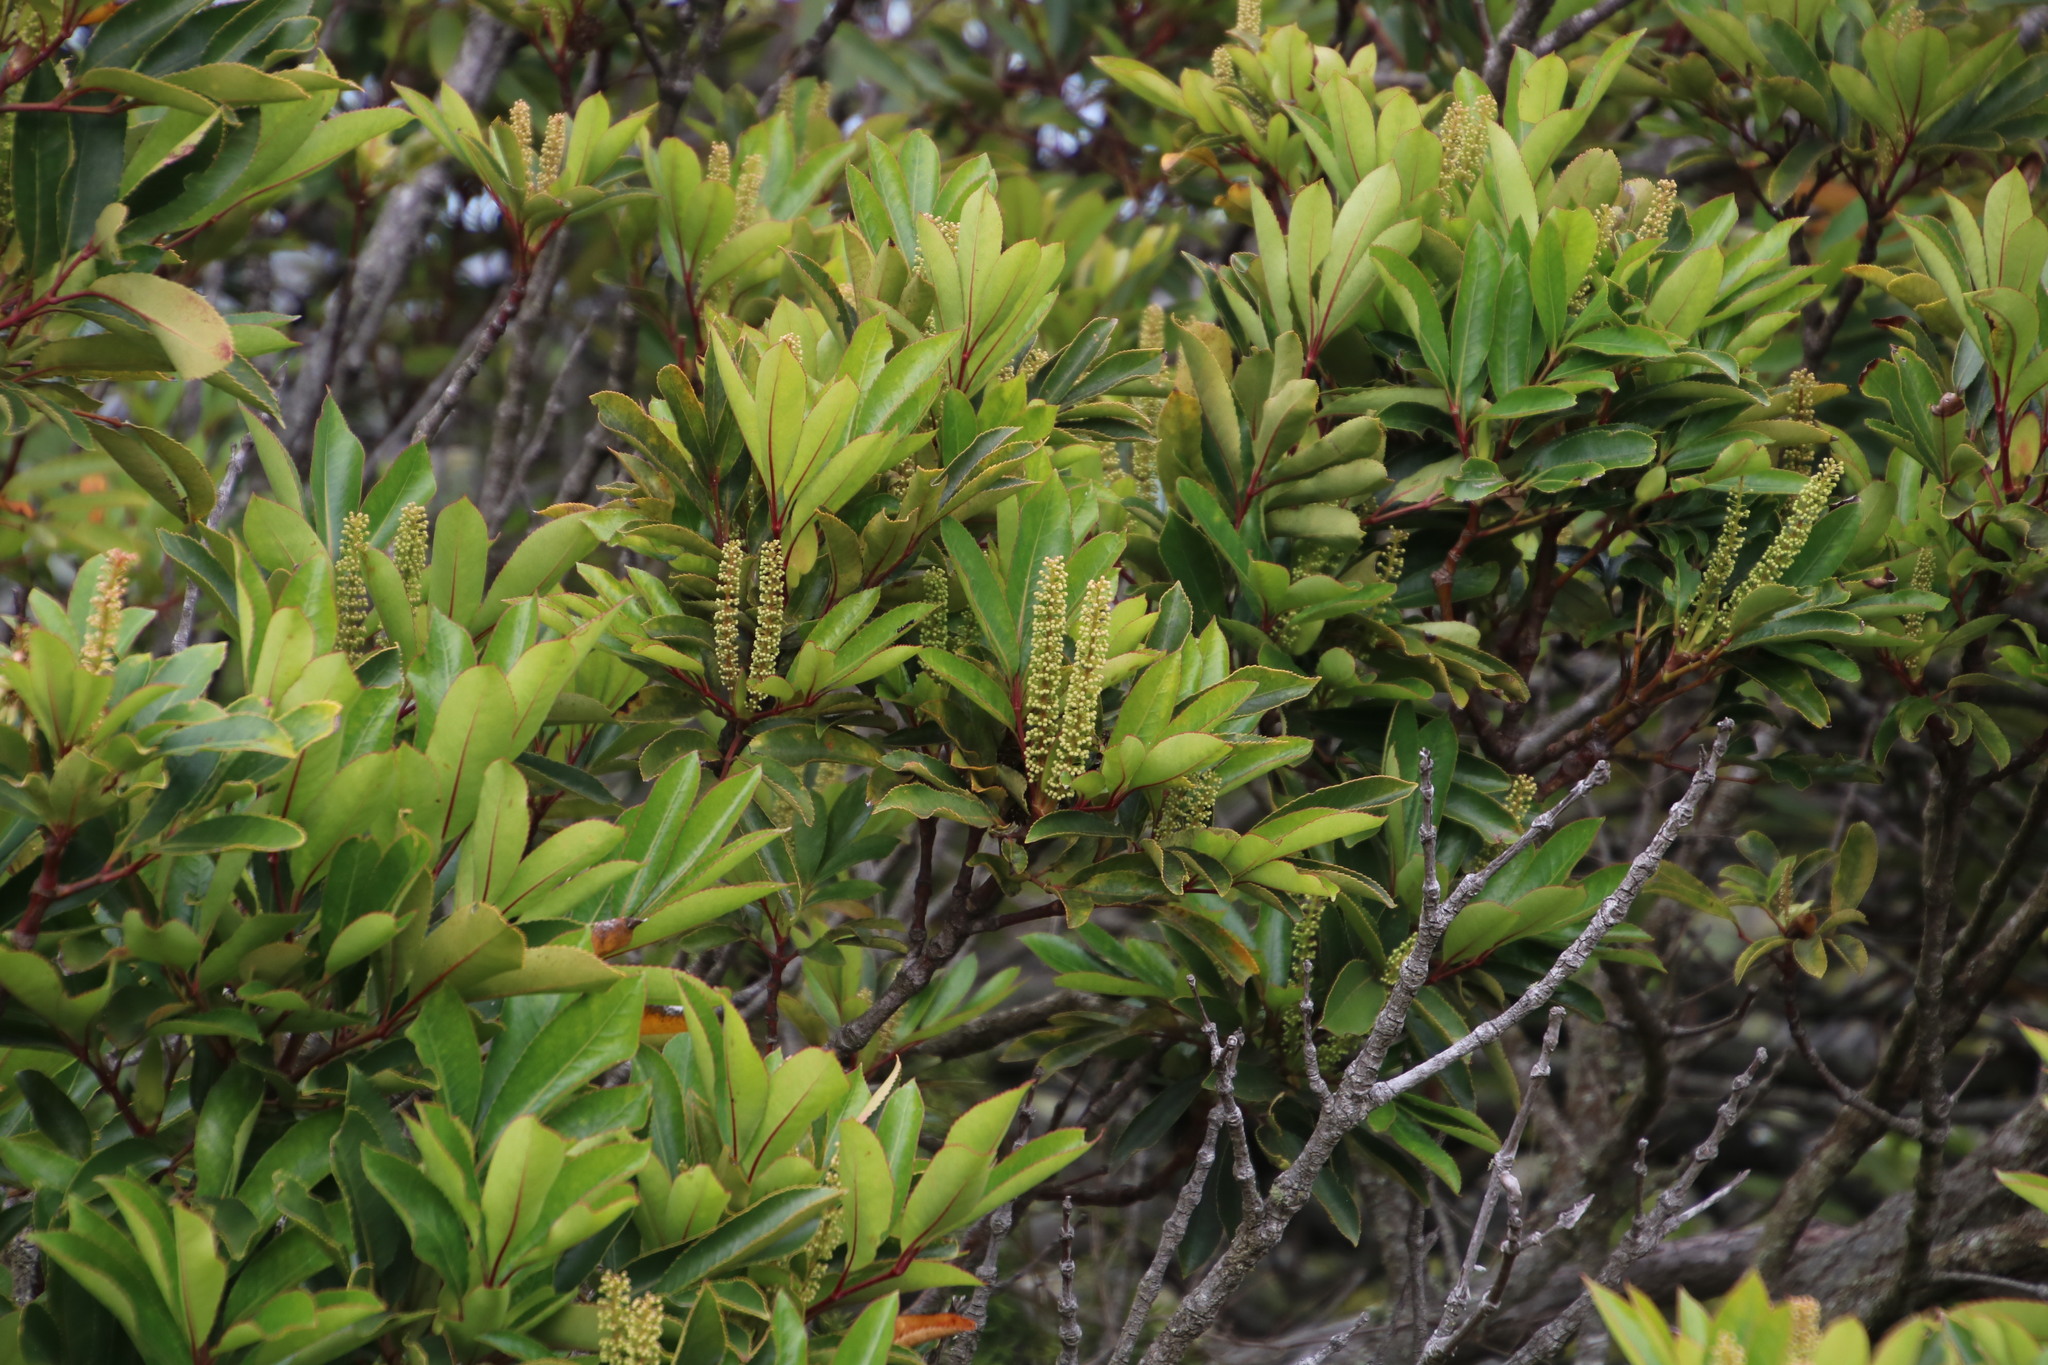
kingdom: Plantae
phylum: Tracheophyta
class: Magnoliopsida
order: Oxalidales
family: Cunoniaceae
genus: Cunonia
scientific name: Cunonia capensis
